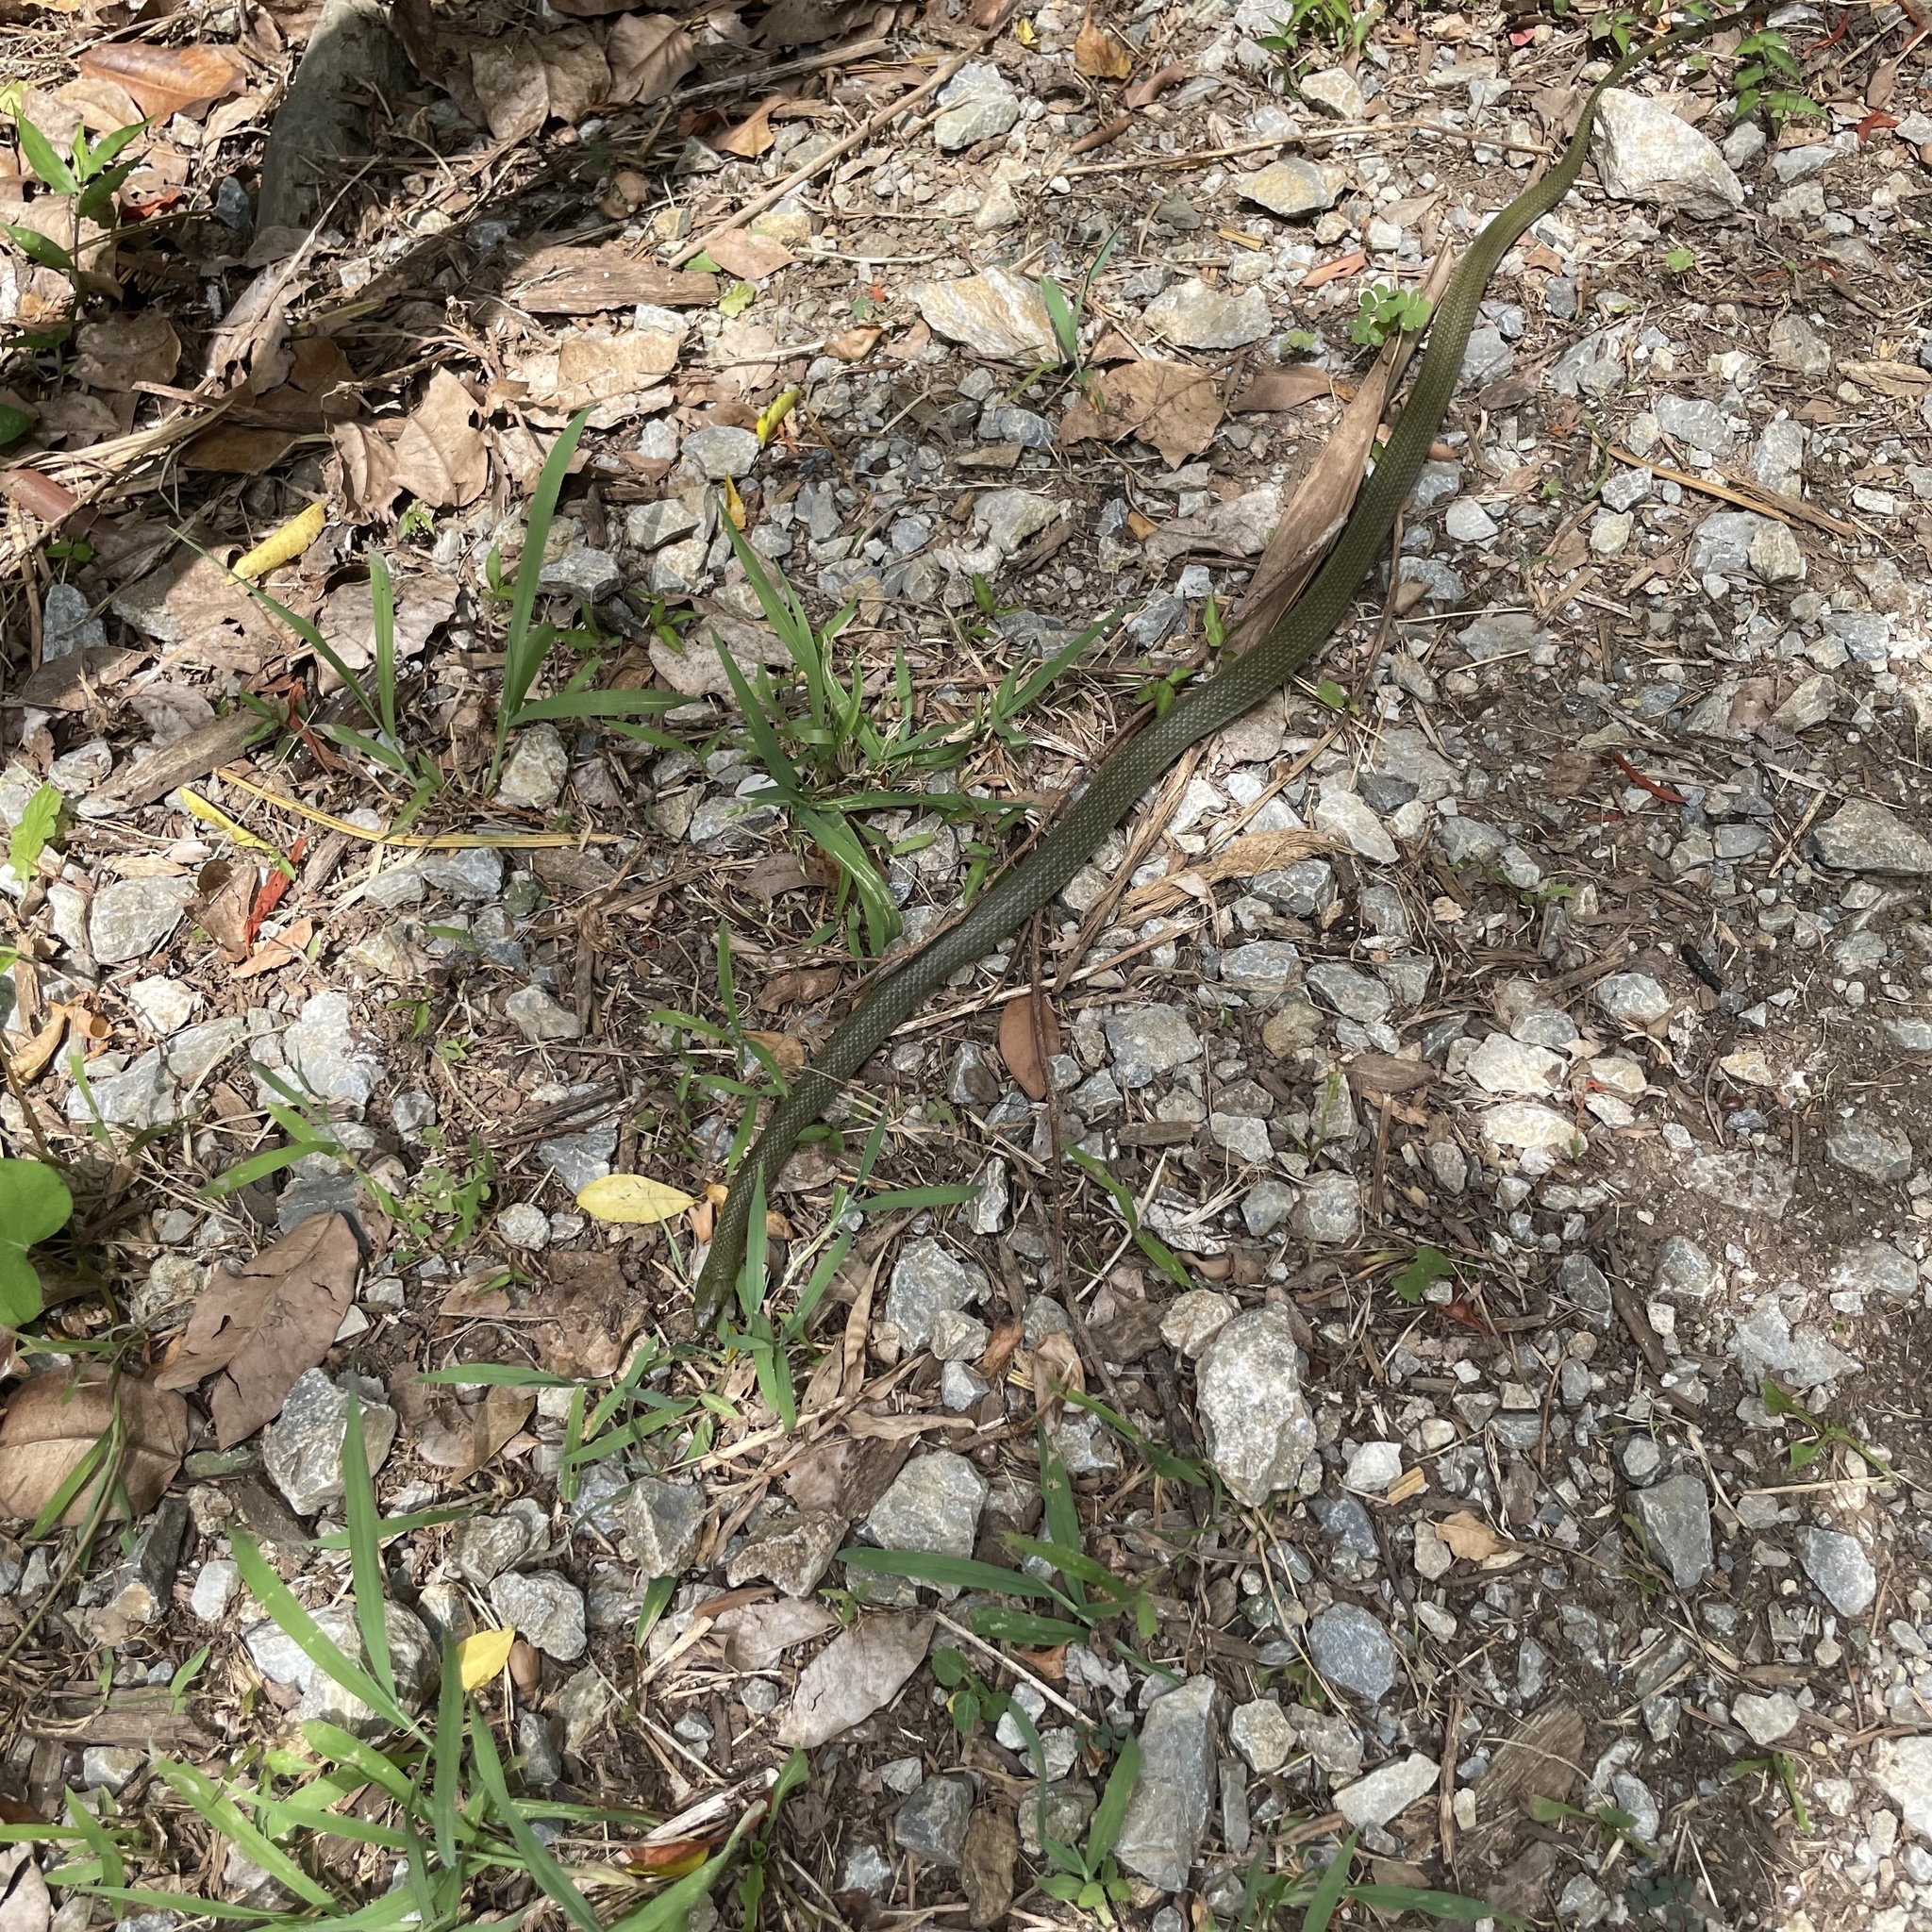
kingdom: Animalia
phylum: Chordata
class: Squamata
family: Colubridae
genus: Ptyas
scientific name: Ptyas semicarinata
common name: Ryukyu green snake
